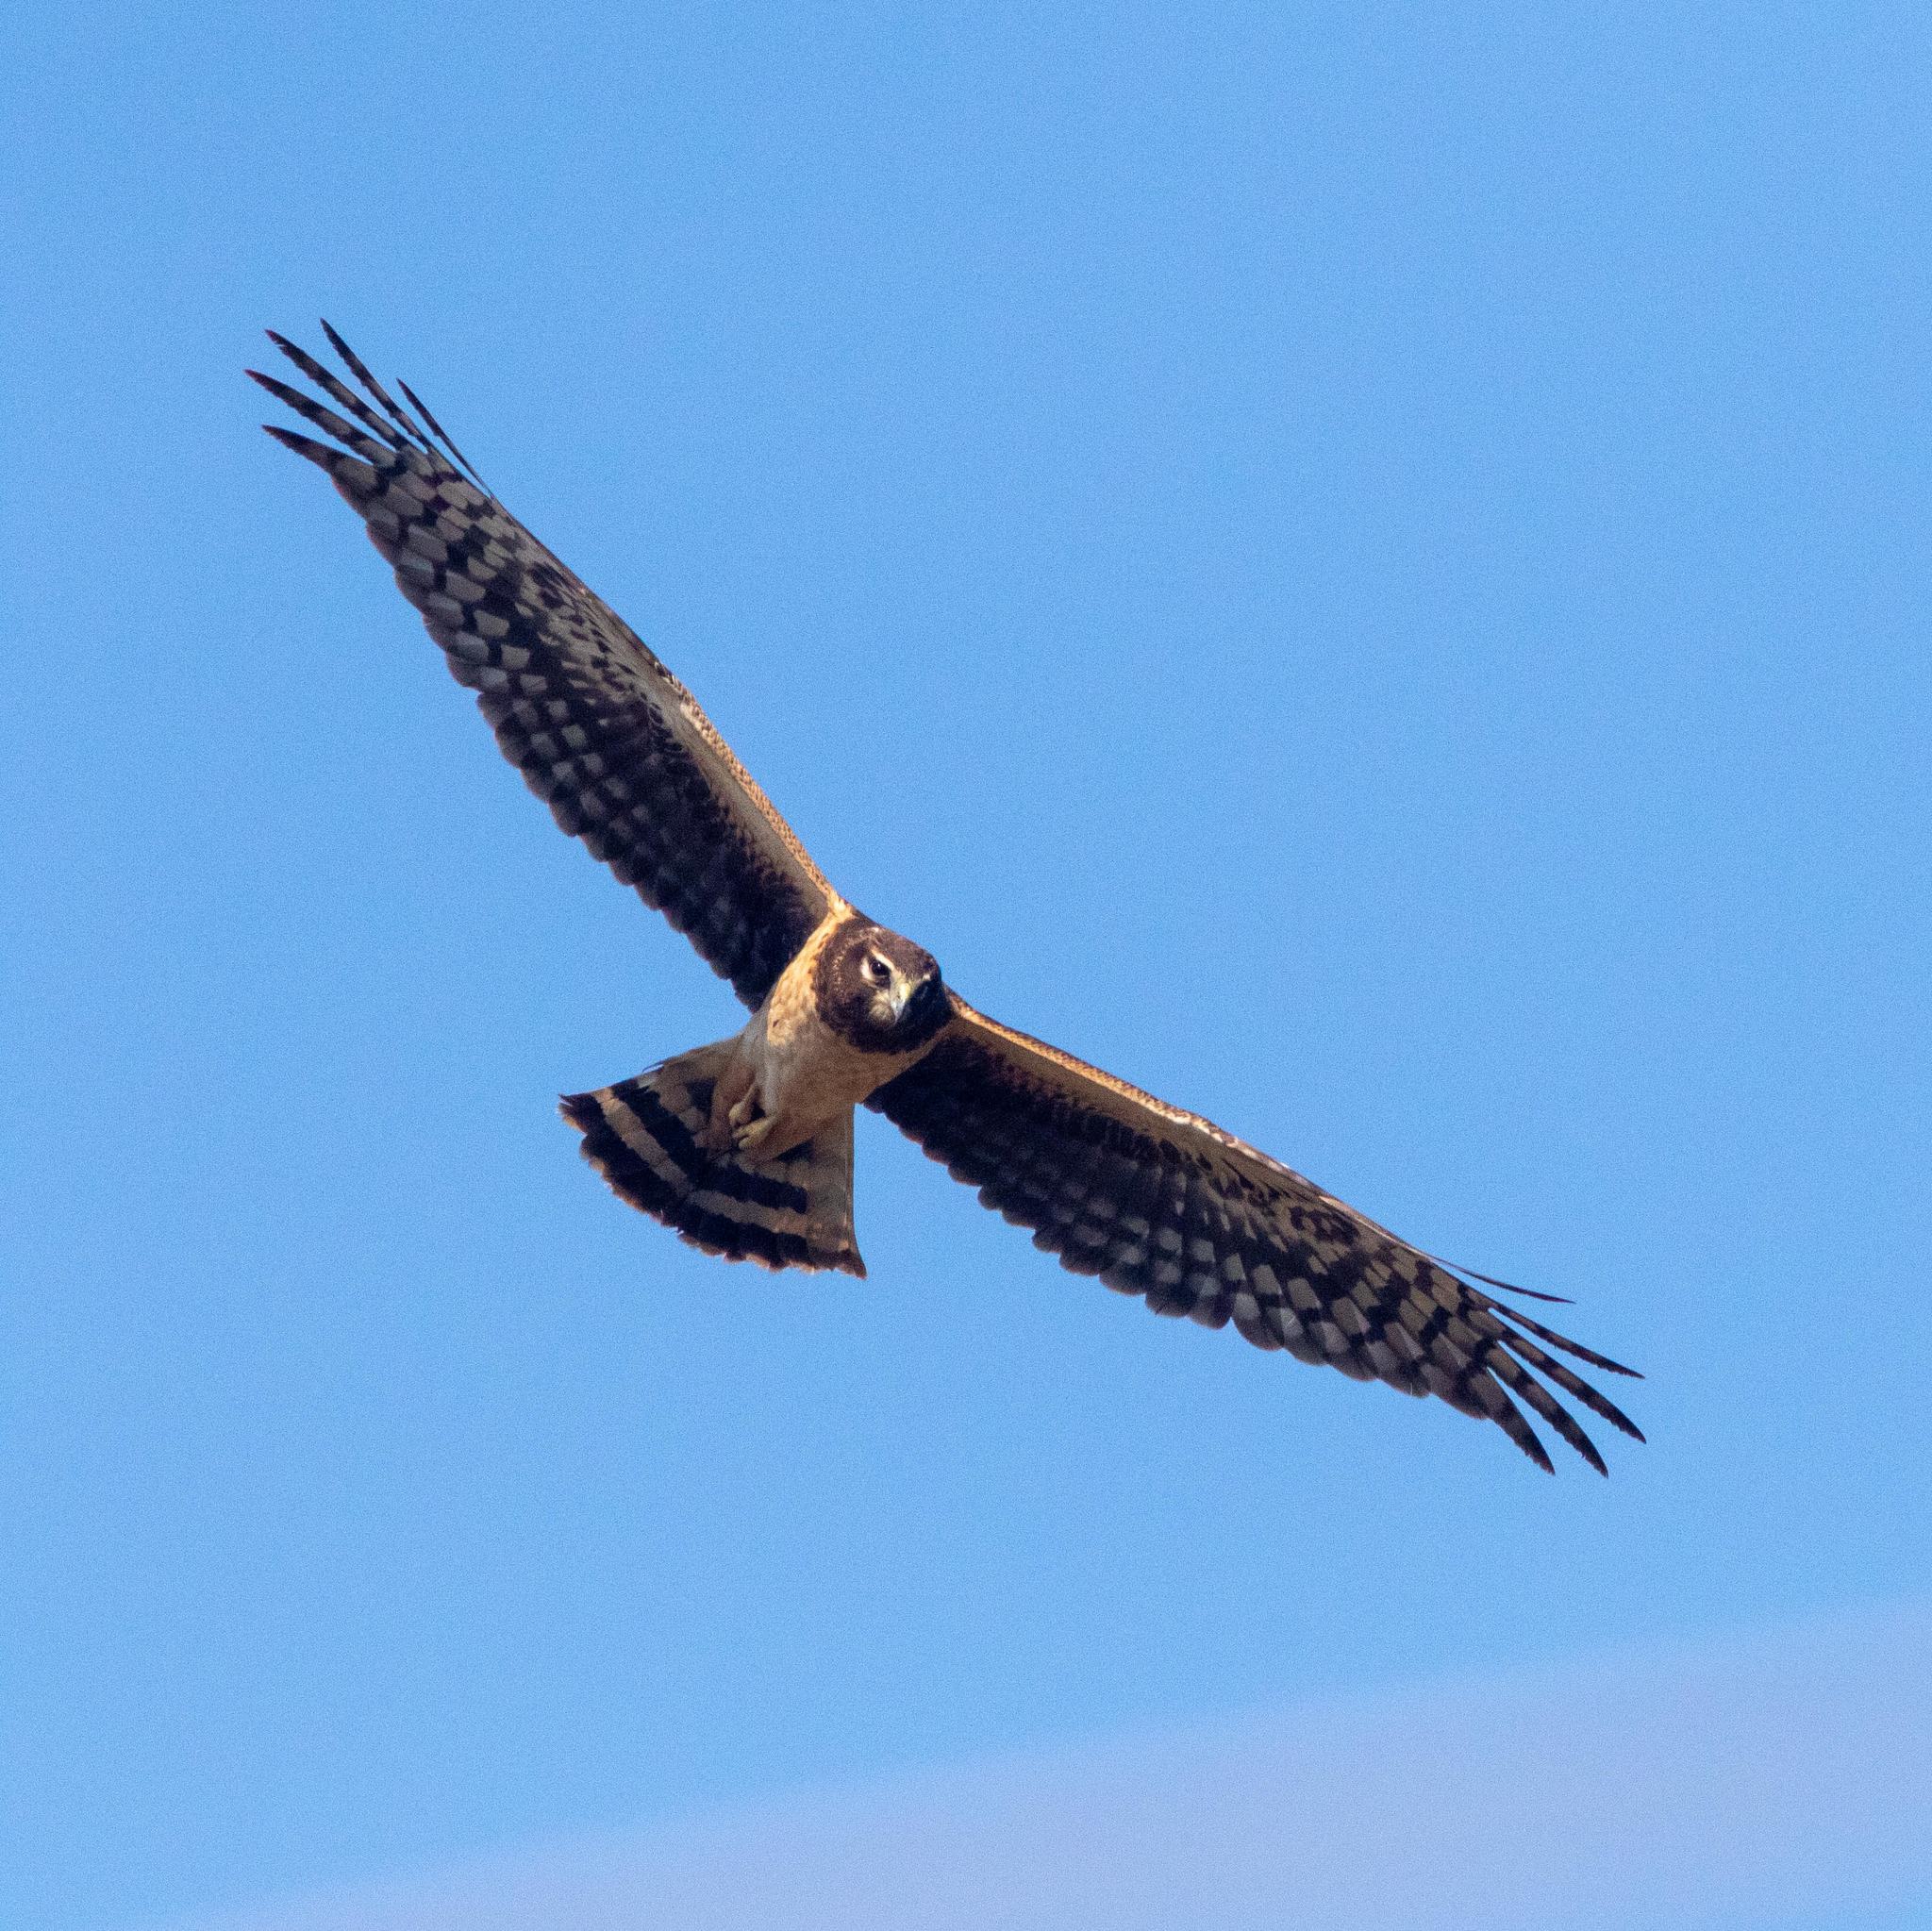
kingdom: Animalia
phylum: Chordata
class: Aves
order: Accipitriformes
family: Accipitridae
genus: Circus
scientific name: Circus cyaneus
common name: Hen harrier
